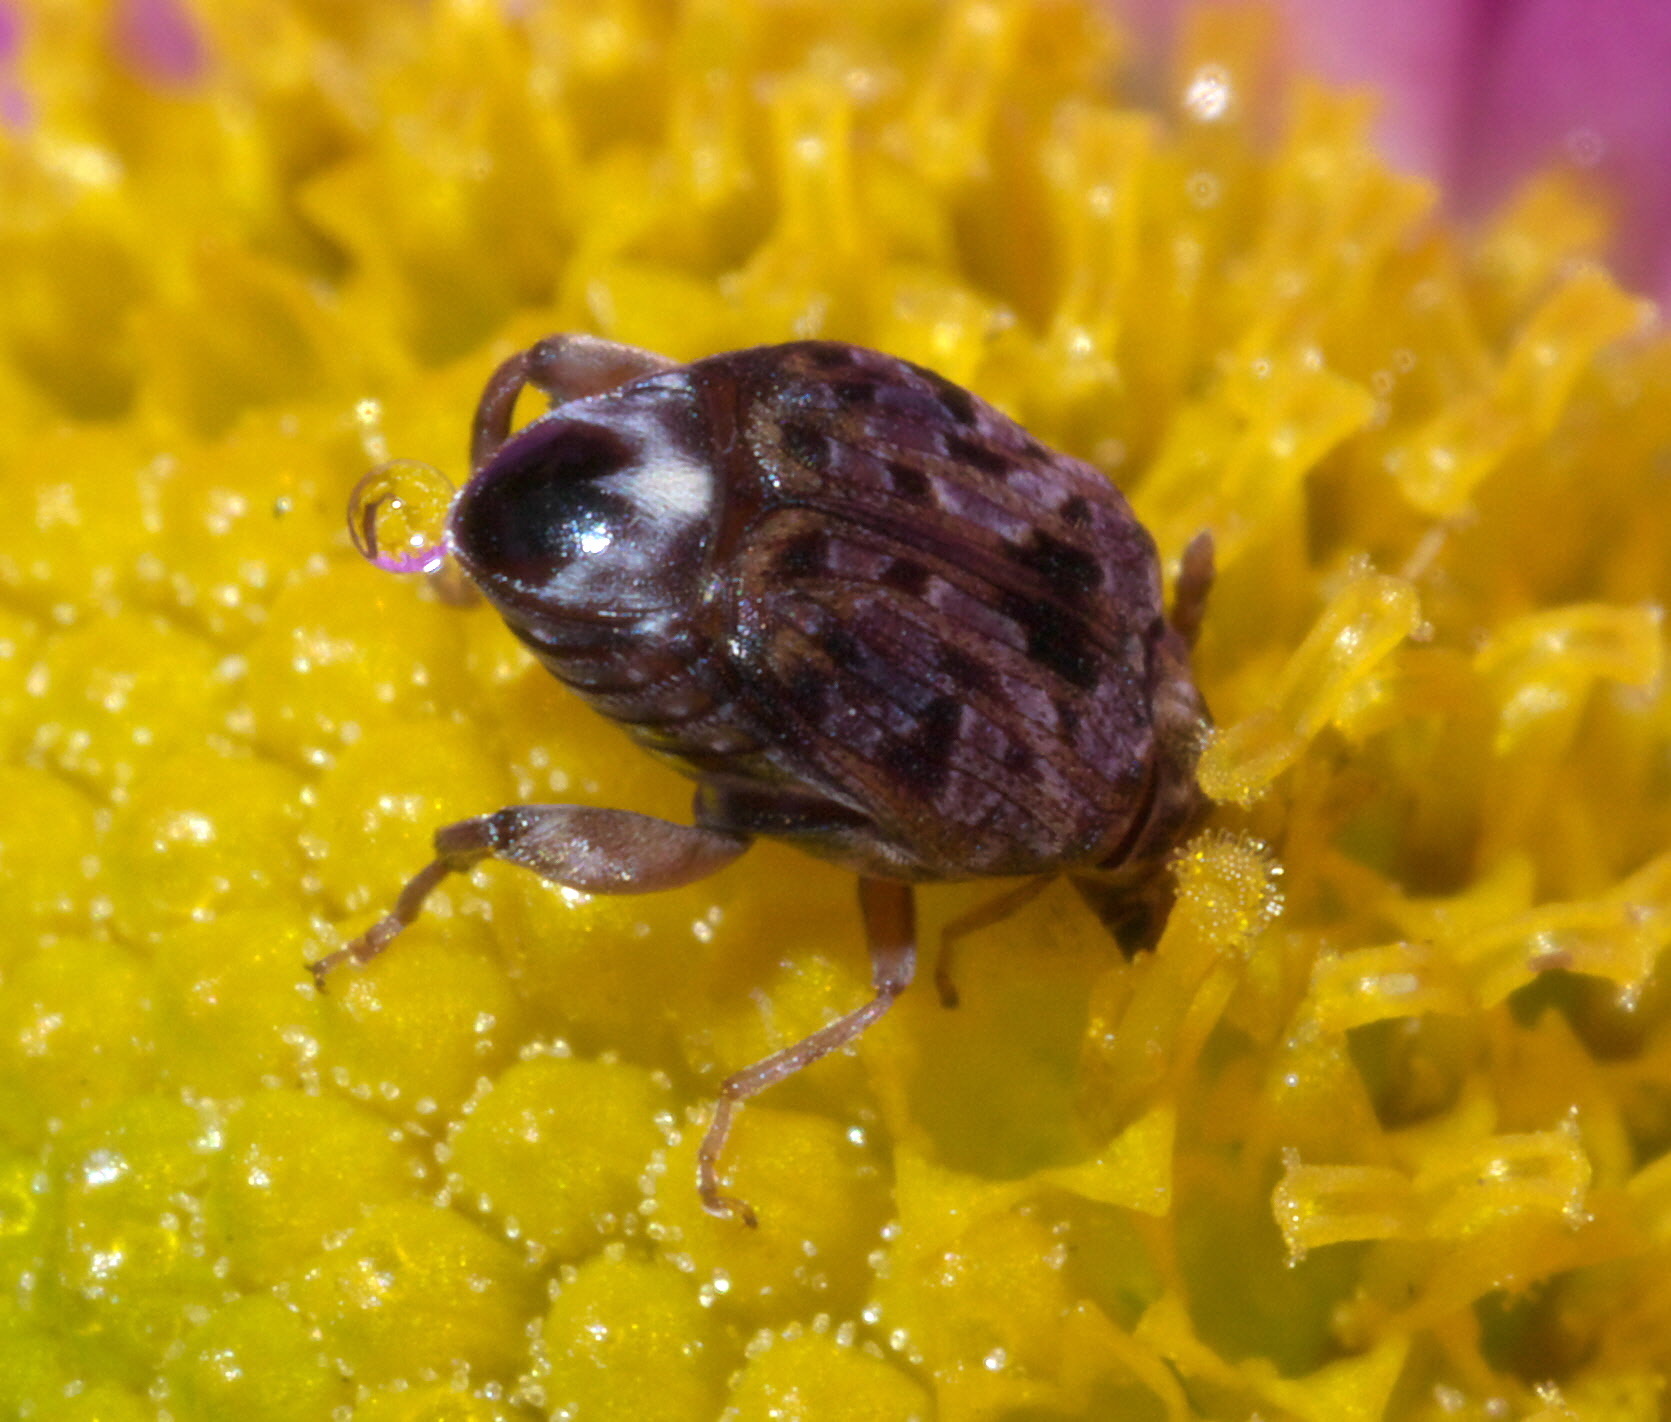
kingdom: Animalia
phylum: Arthropoda
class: Insecta
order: Coleoptera
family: Chrysomelidae
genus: Gibbobruchus
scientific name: Gibbobruchus mimus
